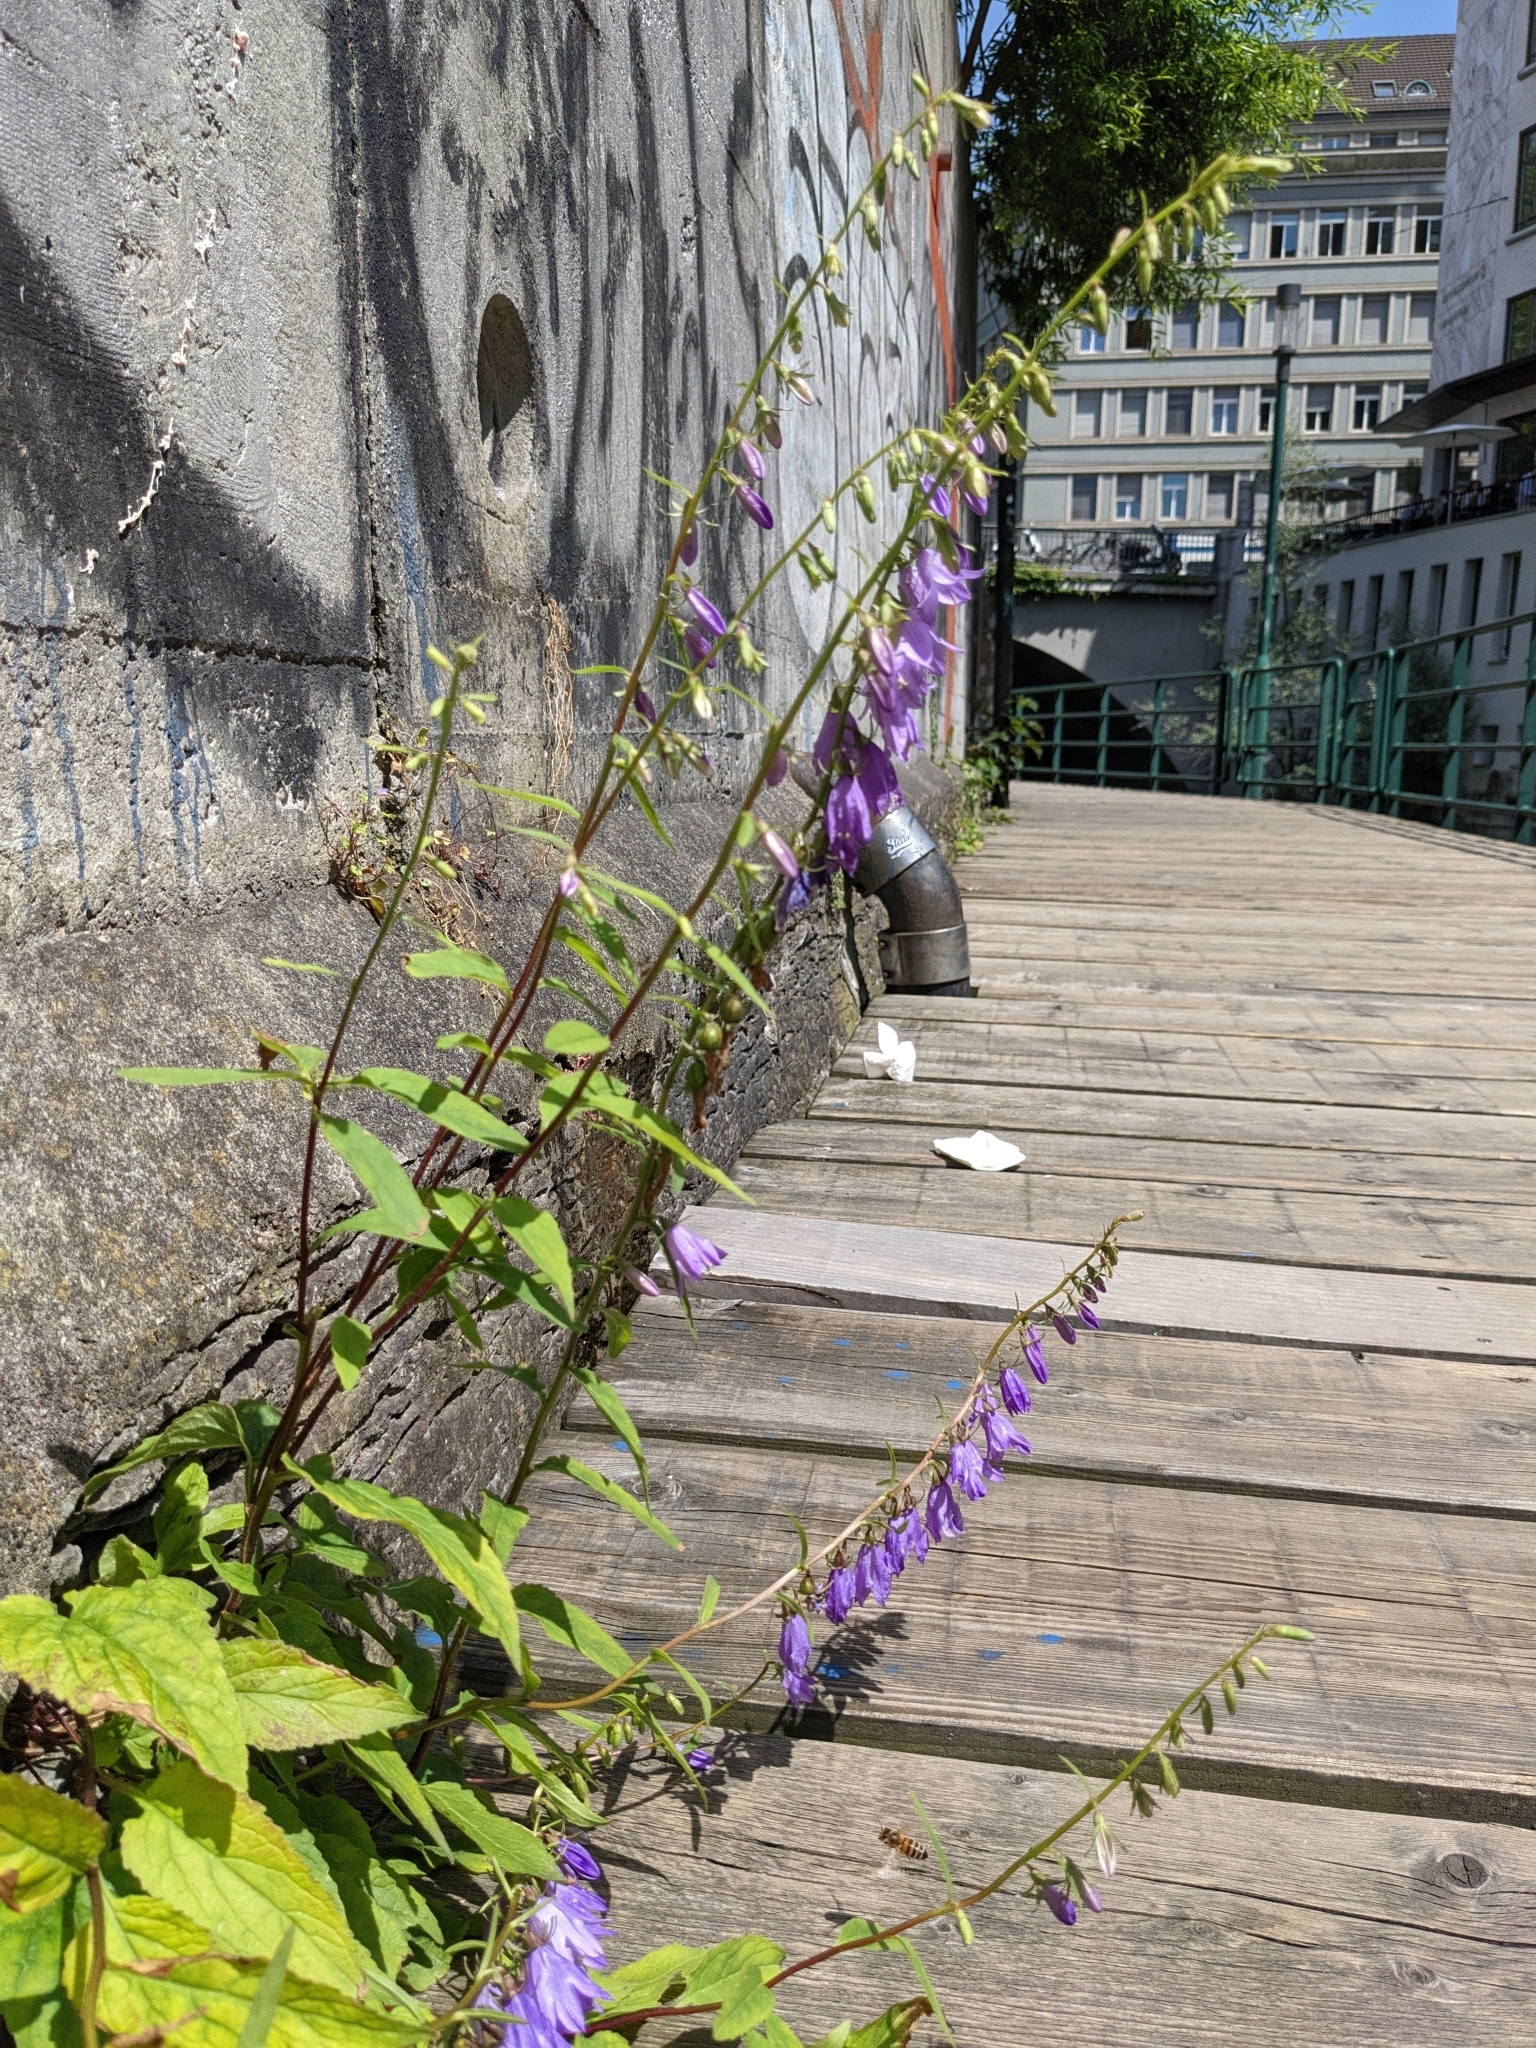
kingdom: Plantae
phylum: Tracheophyta
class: Magnoliopsida
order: Asterales
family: Campanulaceae
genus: Campanula
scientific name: Campanula rapunculoides
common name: Creeping bellflower
